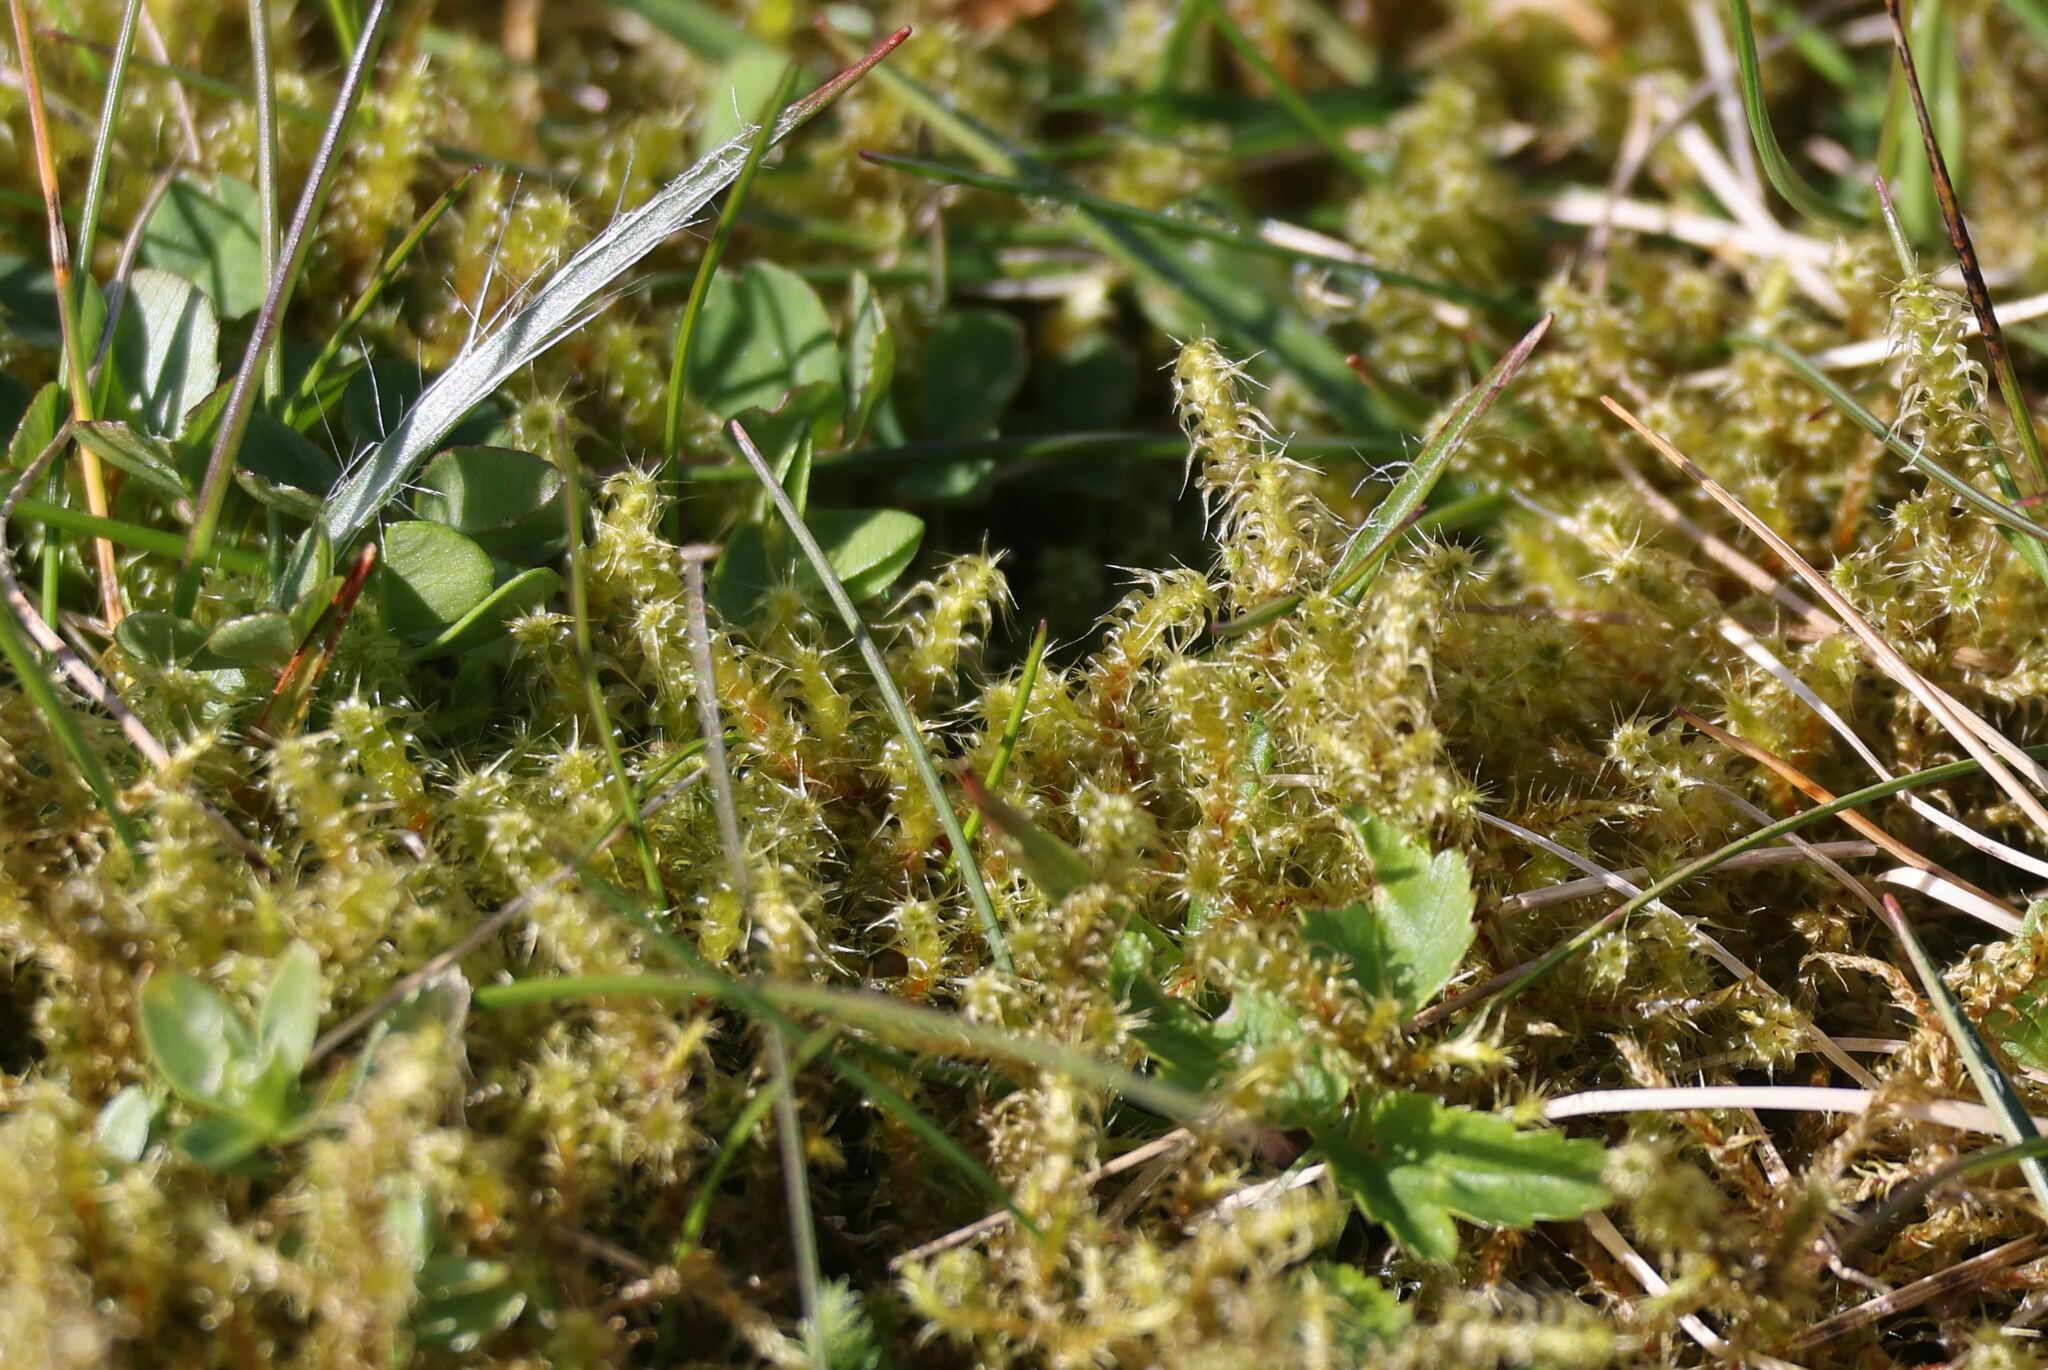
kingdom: Plantae
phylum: Bryophyta
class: Bryopsida
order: Hypnales
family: Hylocomiaceae
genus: Rhytidiadelphus
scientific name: Rhytidiadelphus squarrosus
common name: Springy turf-moss
